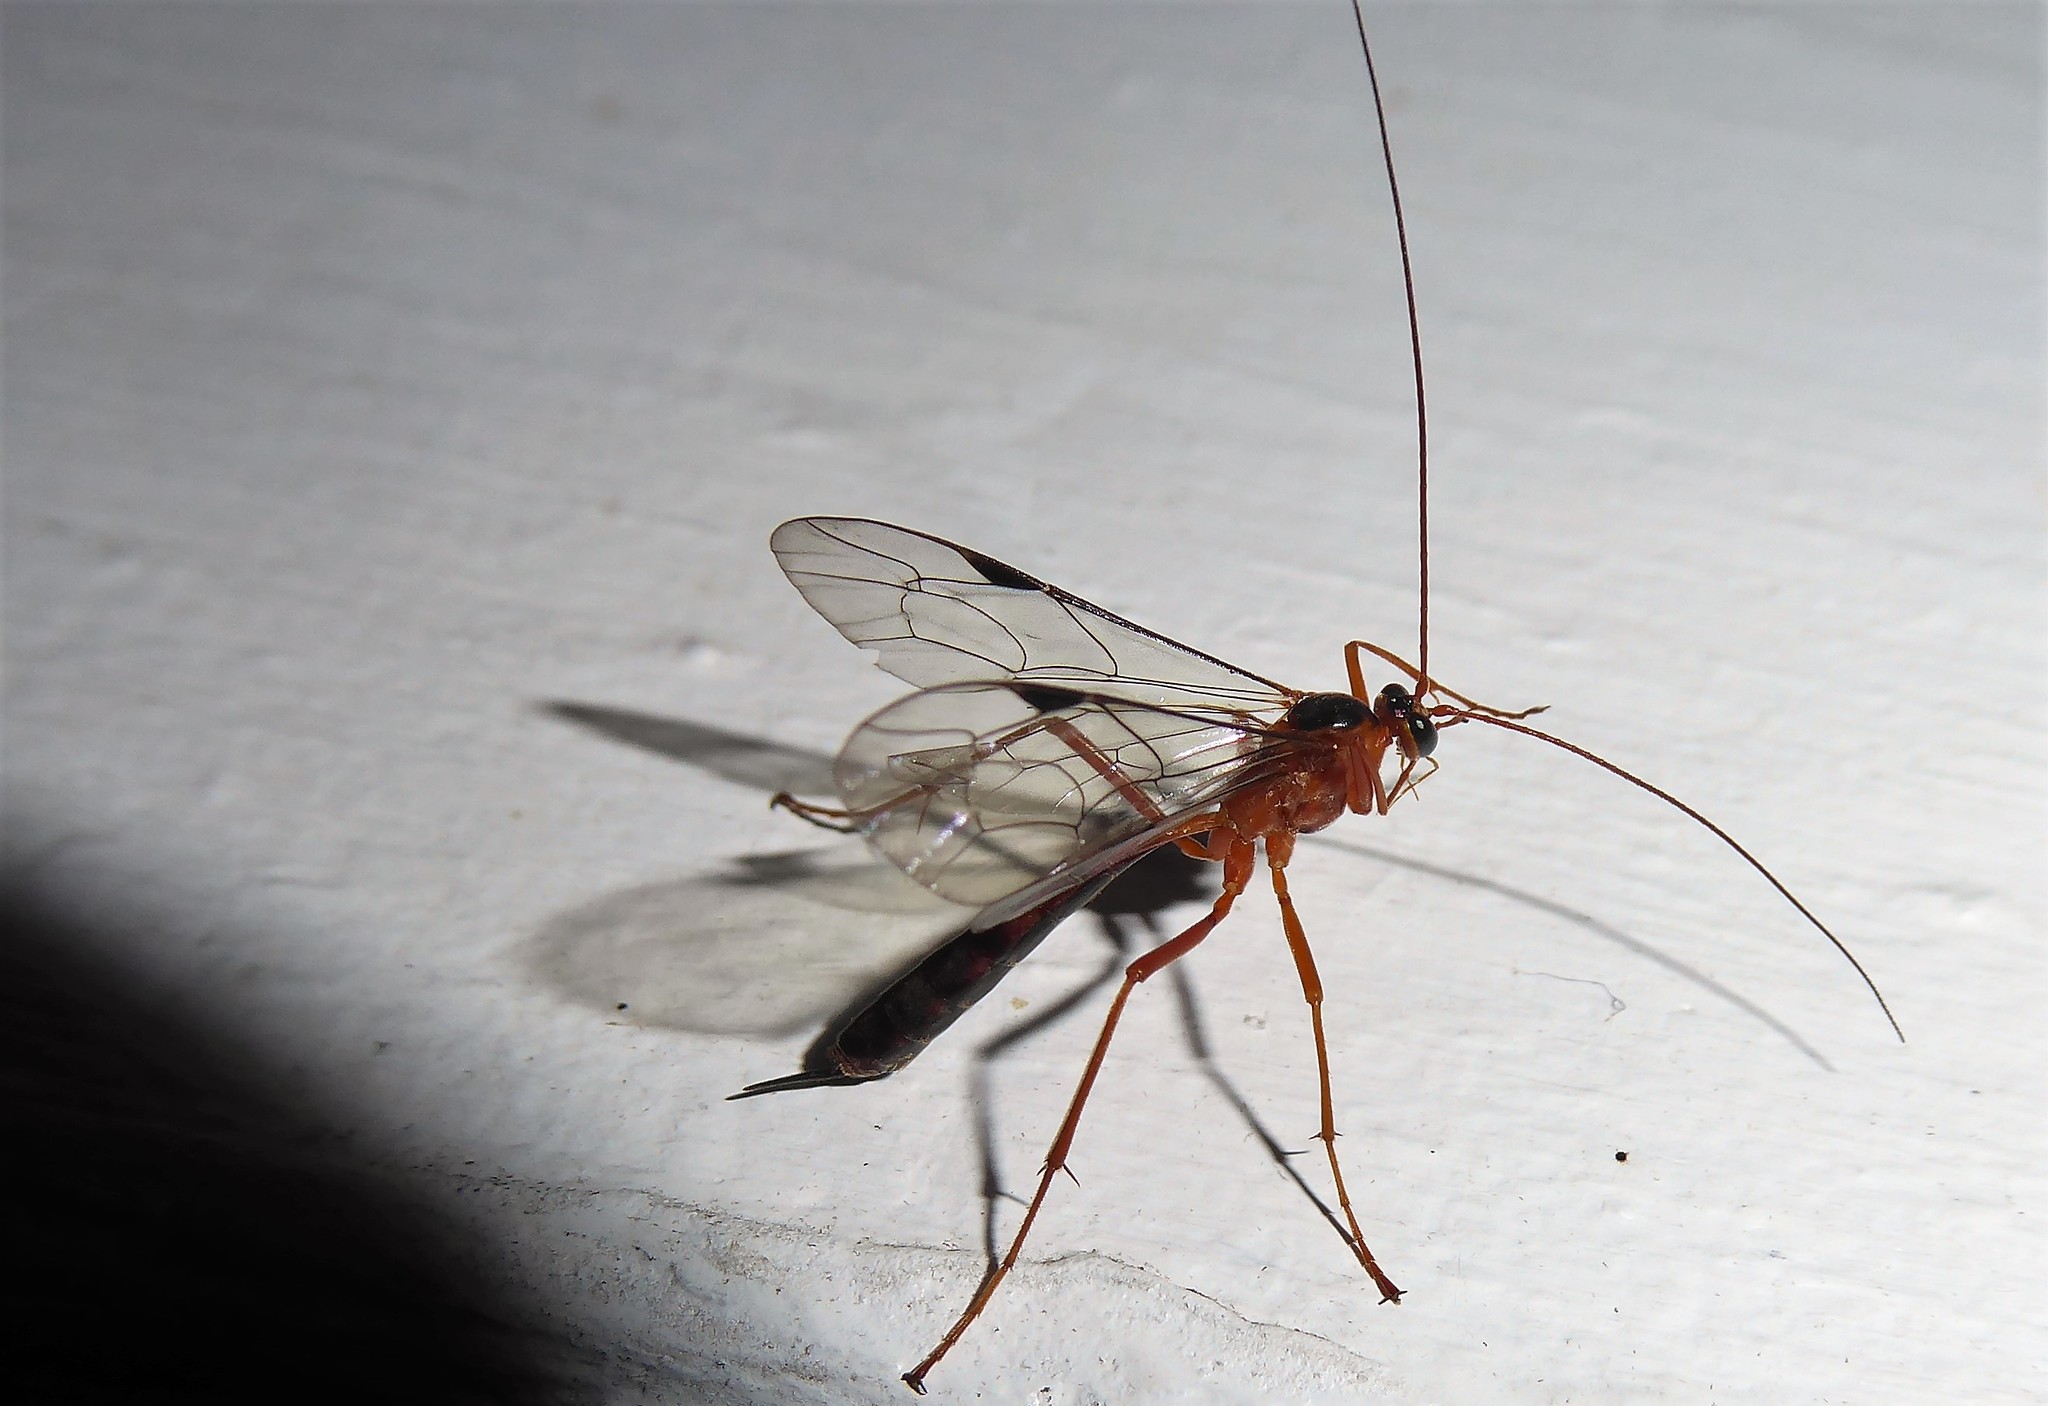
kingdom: Animalia
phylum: Arthropoda
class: Insecta
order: Hymenoptera
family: Ichneumonidae
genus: Netelia
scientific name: Netelia ephippiata
